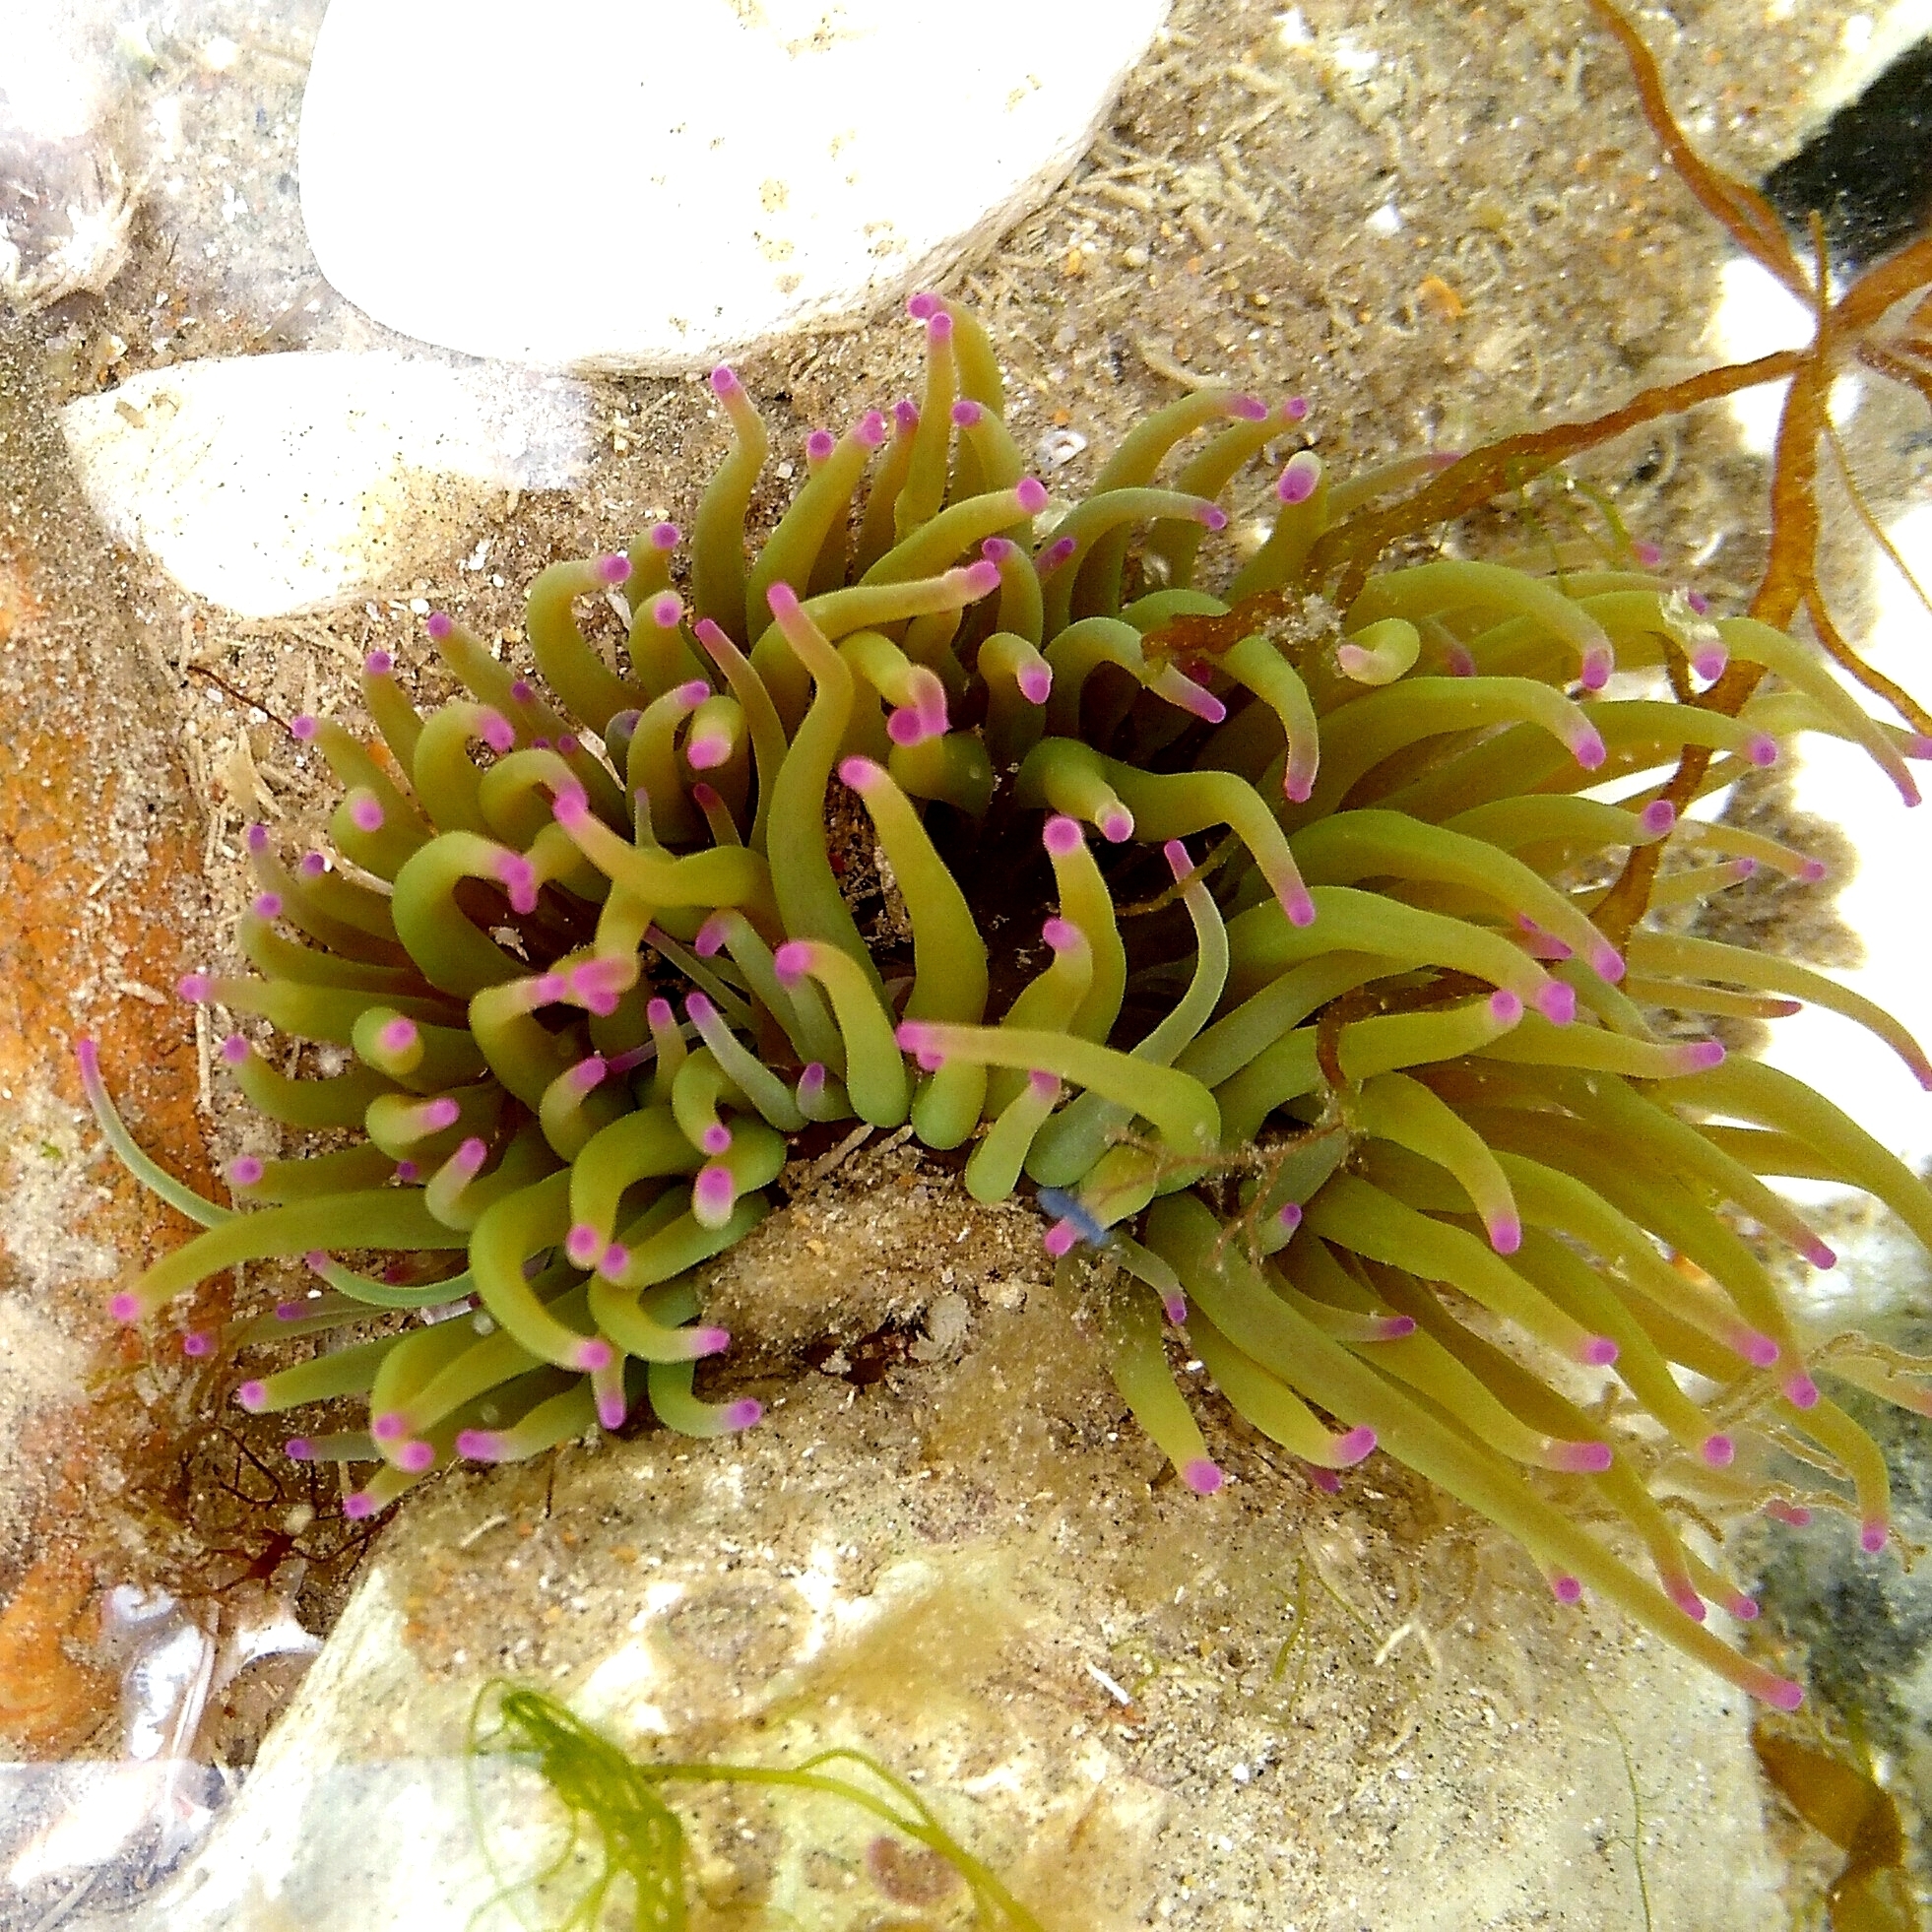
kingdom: Animalia
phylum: Cnidaria
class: Anthozoa
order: Actiniaria
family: Actiniidae
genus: Anemonia
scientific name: Anemonia viridis
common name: Snakelocks anemone
